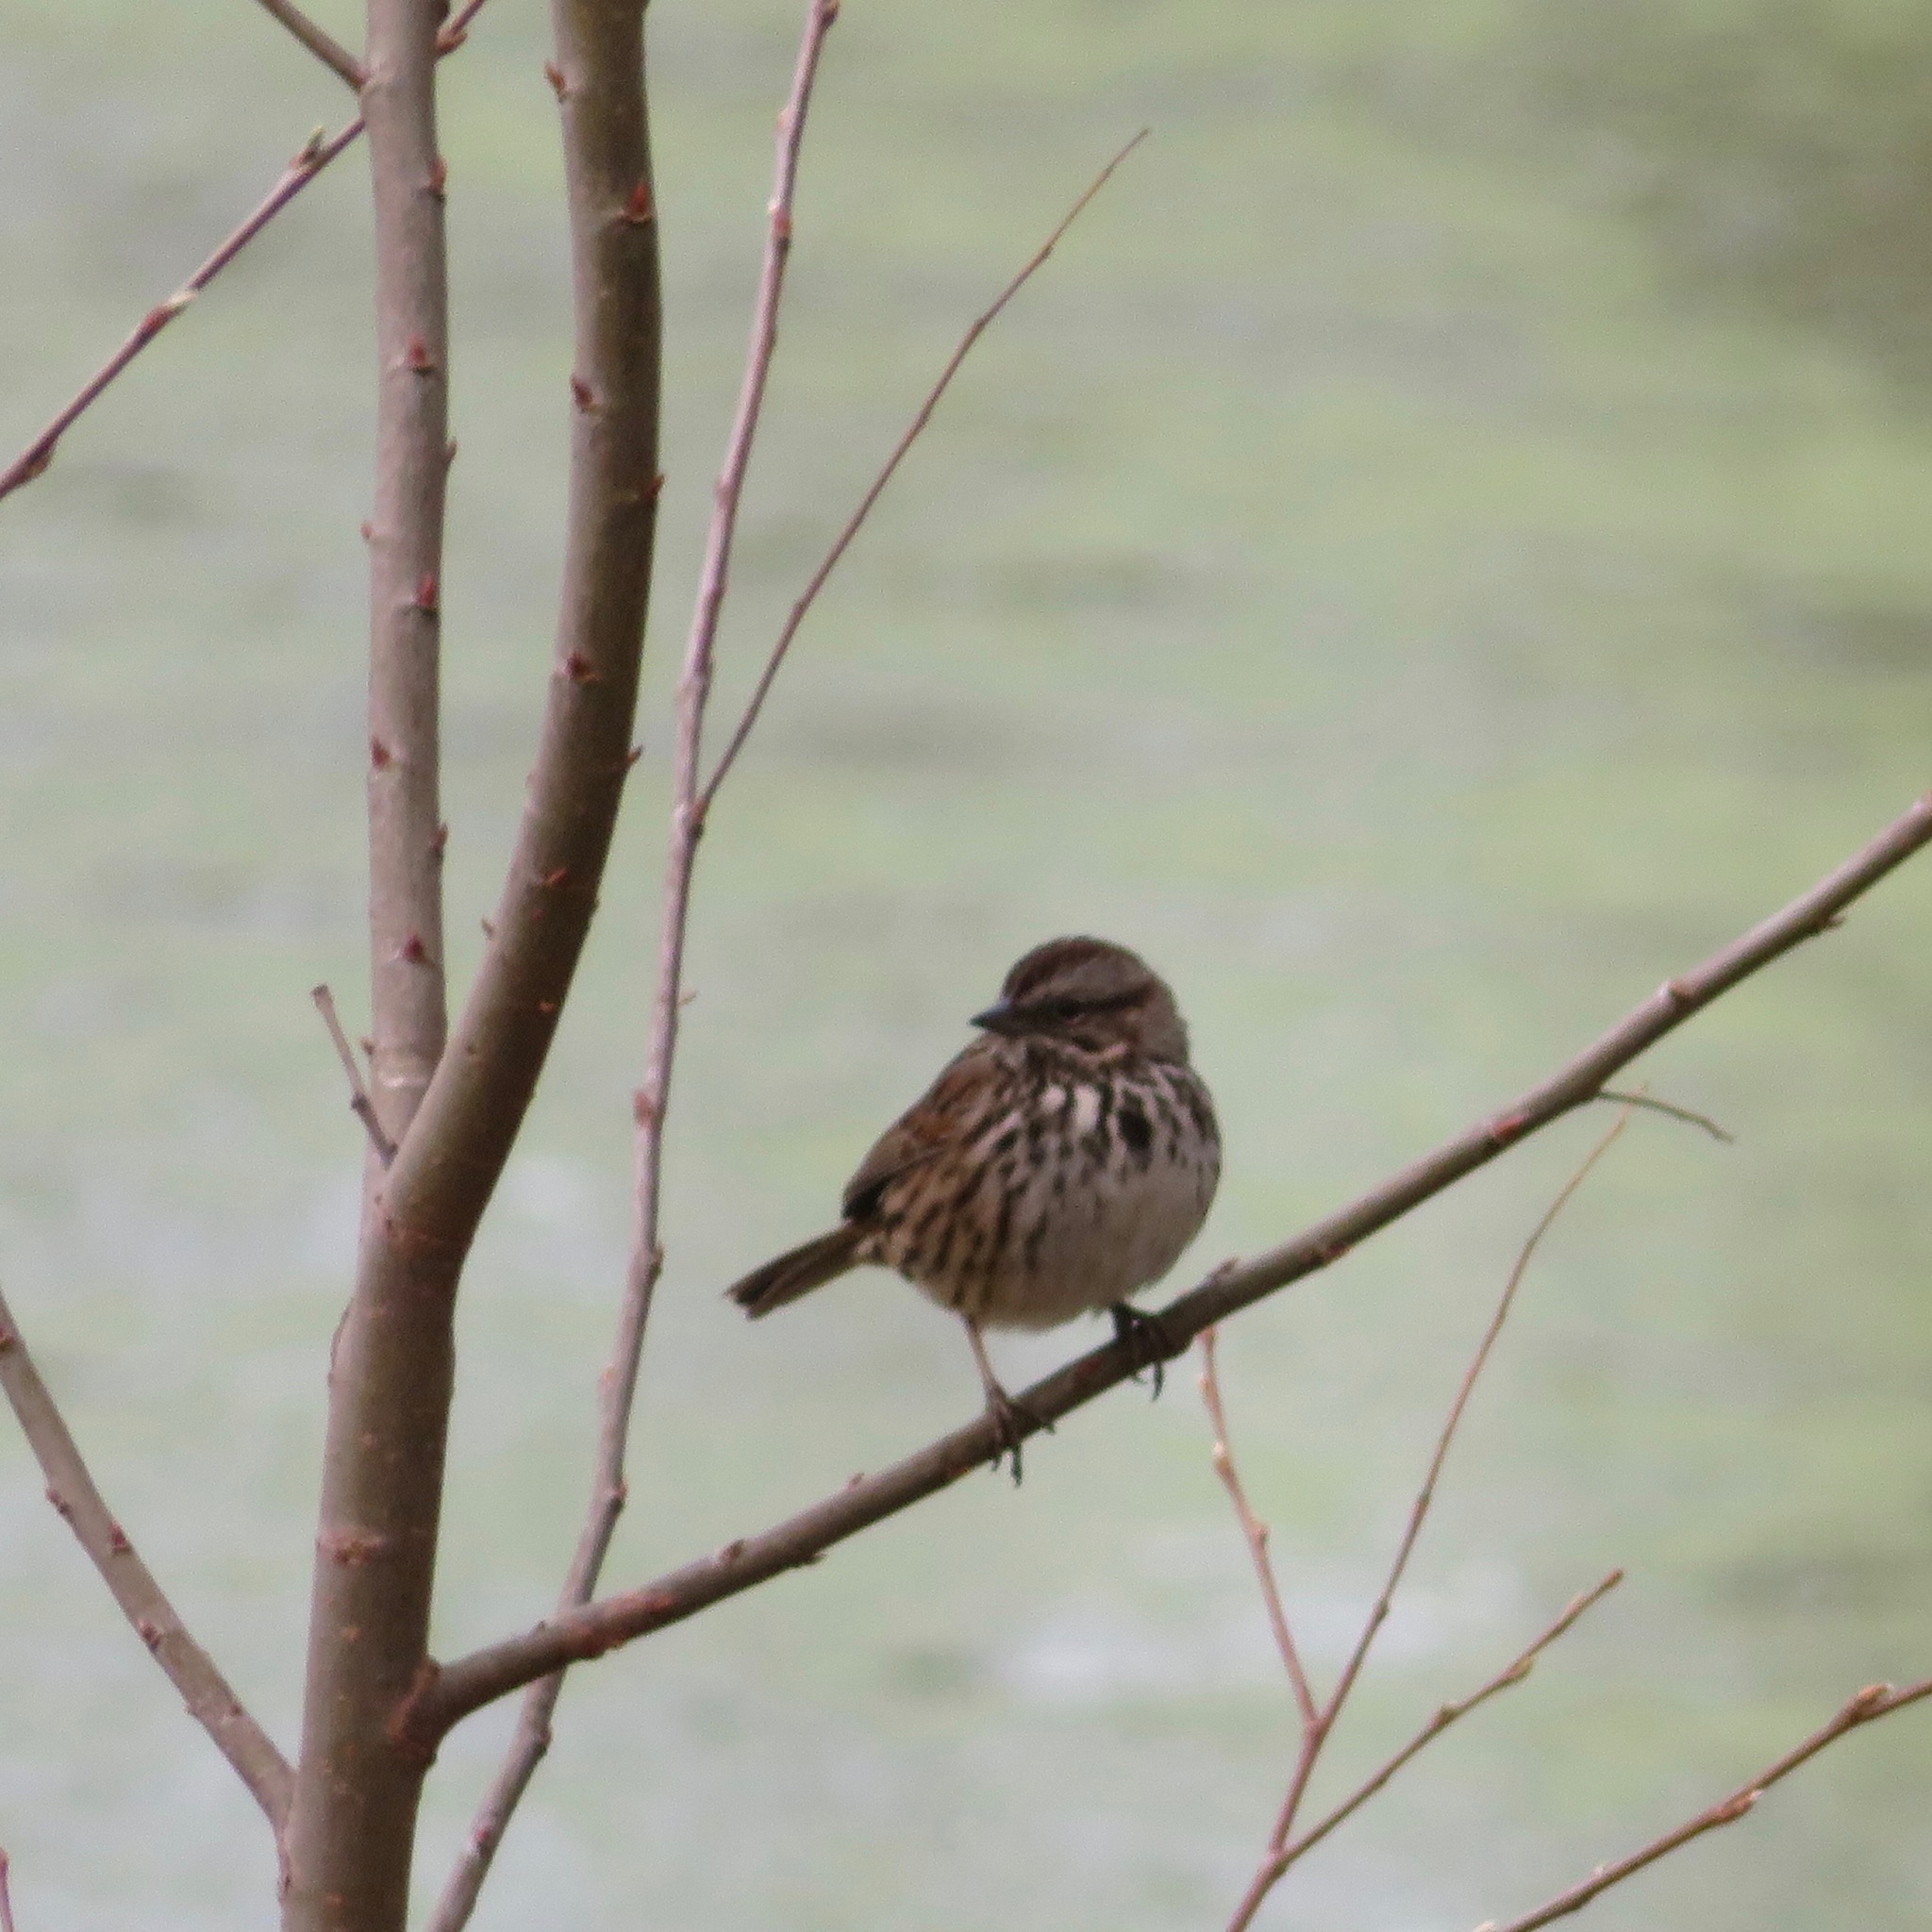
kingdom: Animalia
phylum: Chordata
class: Aves
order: Passeriformes
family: Passerellidae
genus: Melospiza
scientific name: Melospiza melodia
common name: Song sparrow
